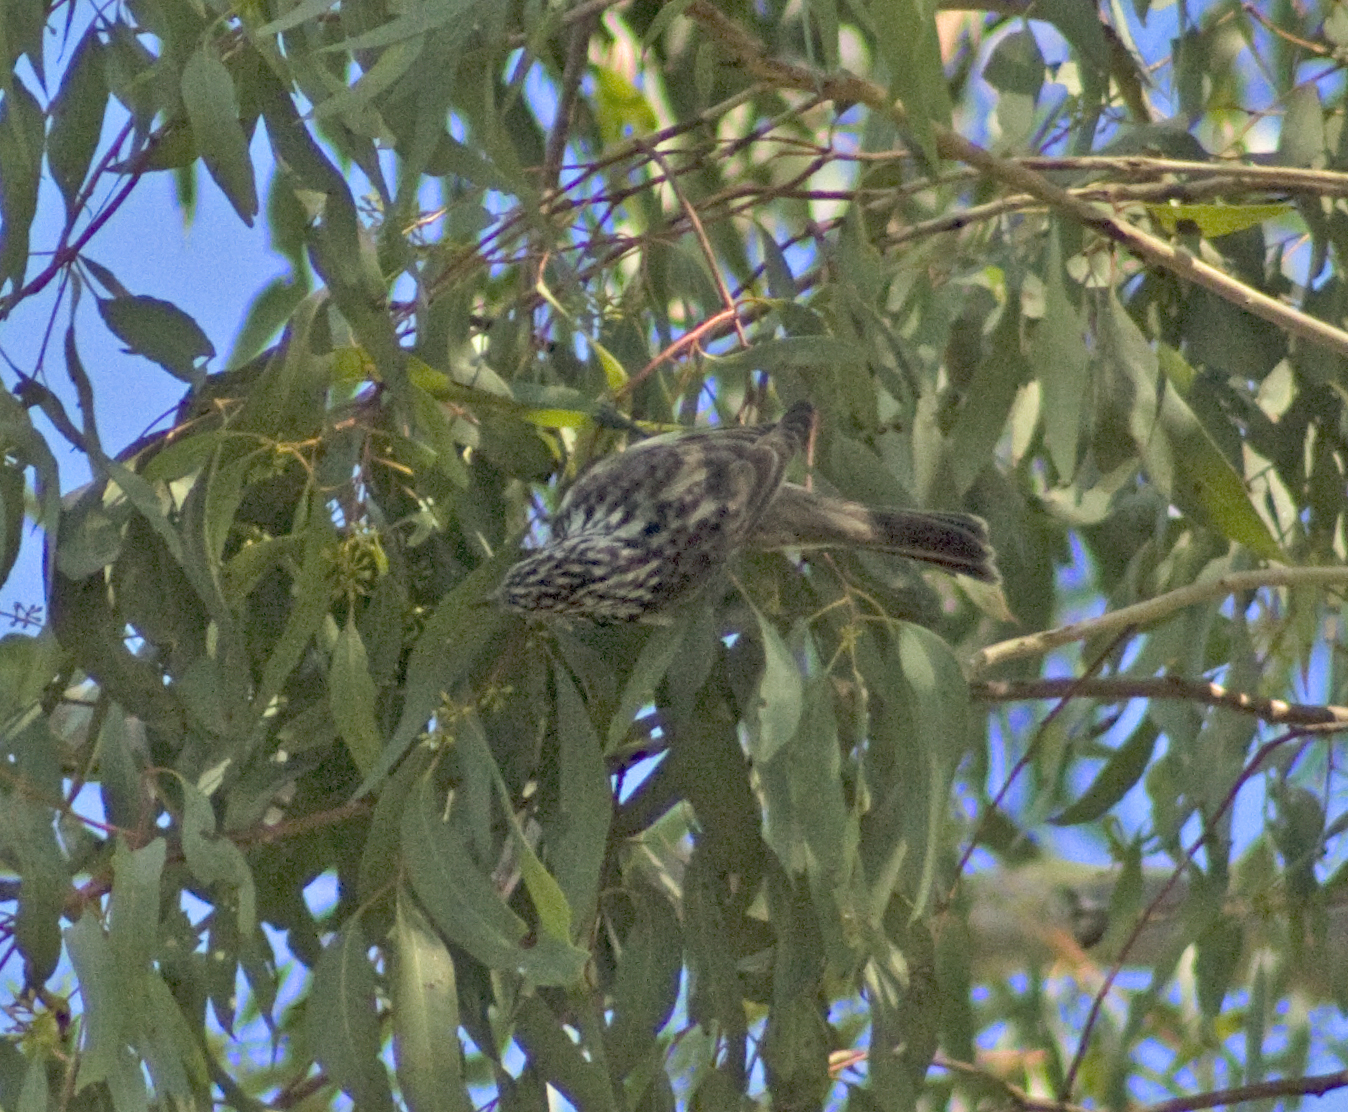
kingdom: Animalia
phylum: Chordata
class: Aves
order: Passeriformes
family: Meliphagidae
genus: Plectorhyncha
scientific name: Plectorhyncha lanceolata
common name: Striped honeyeater
